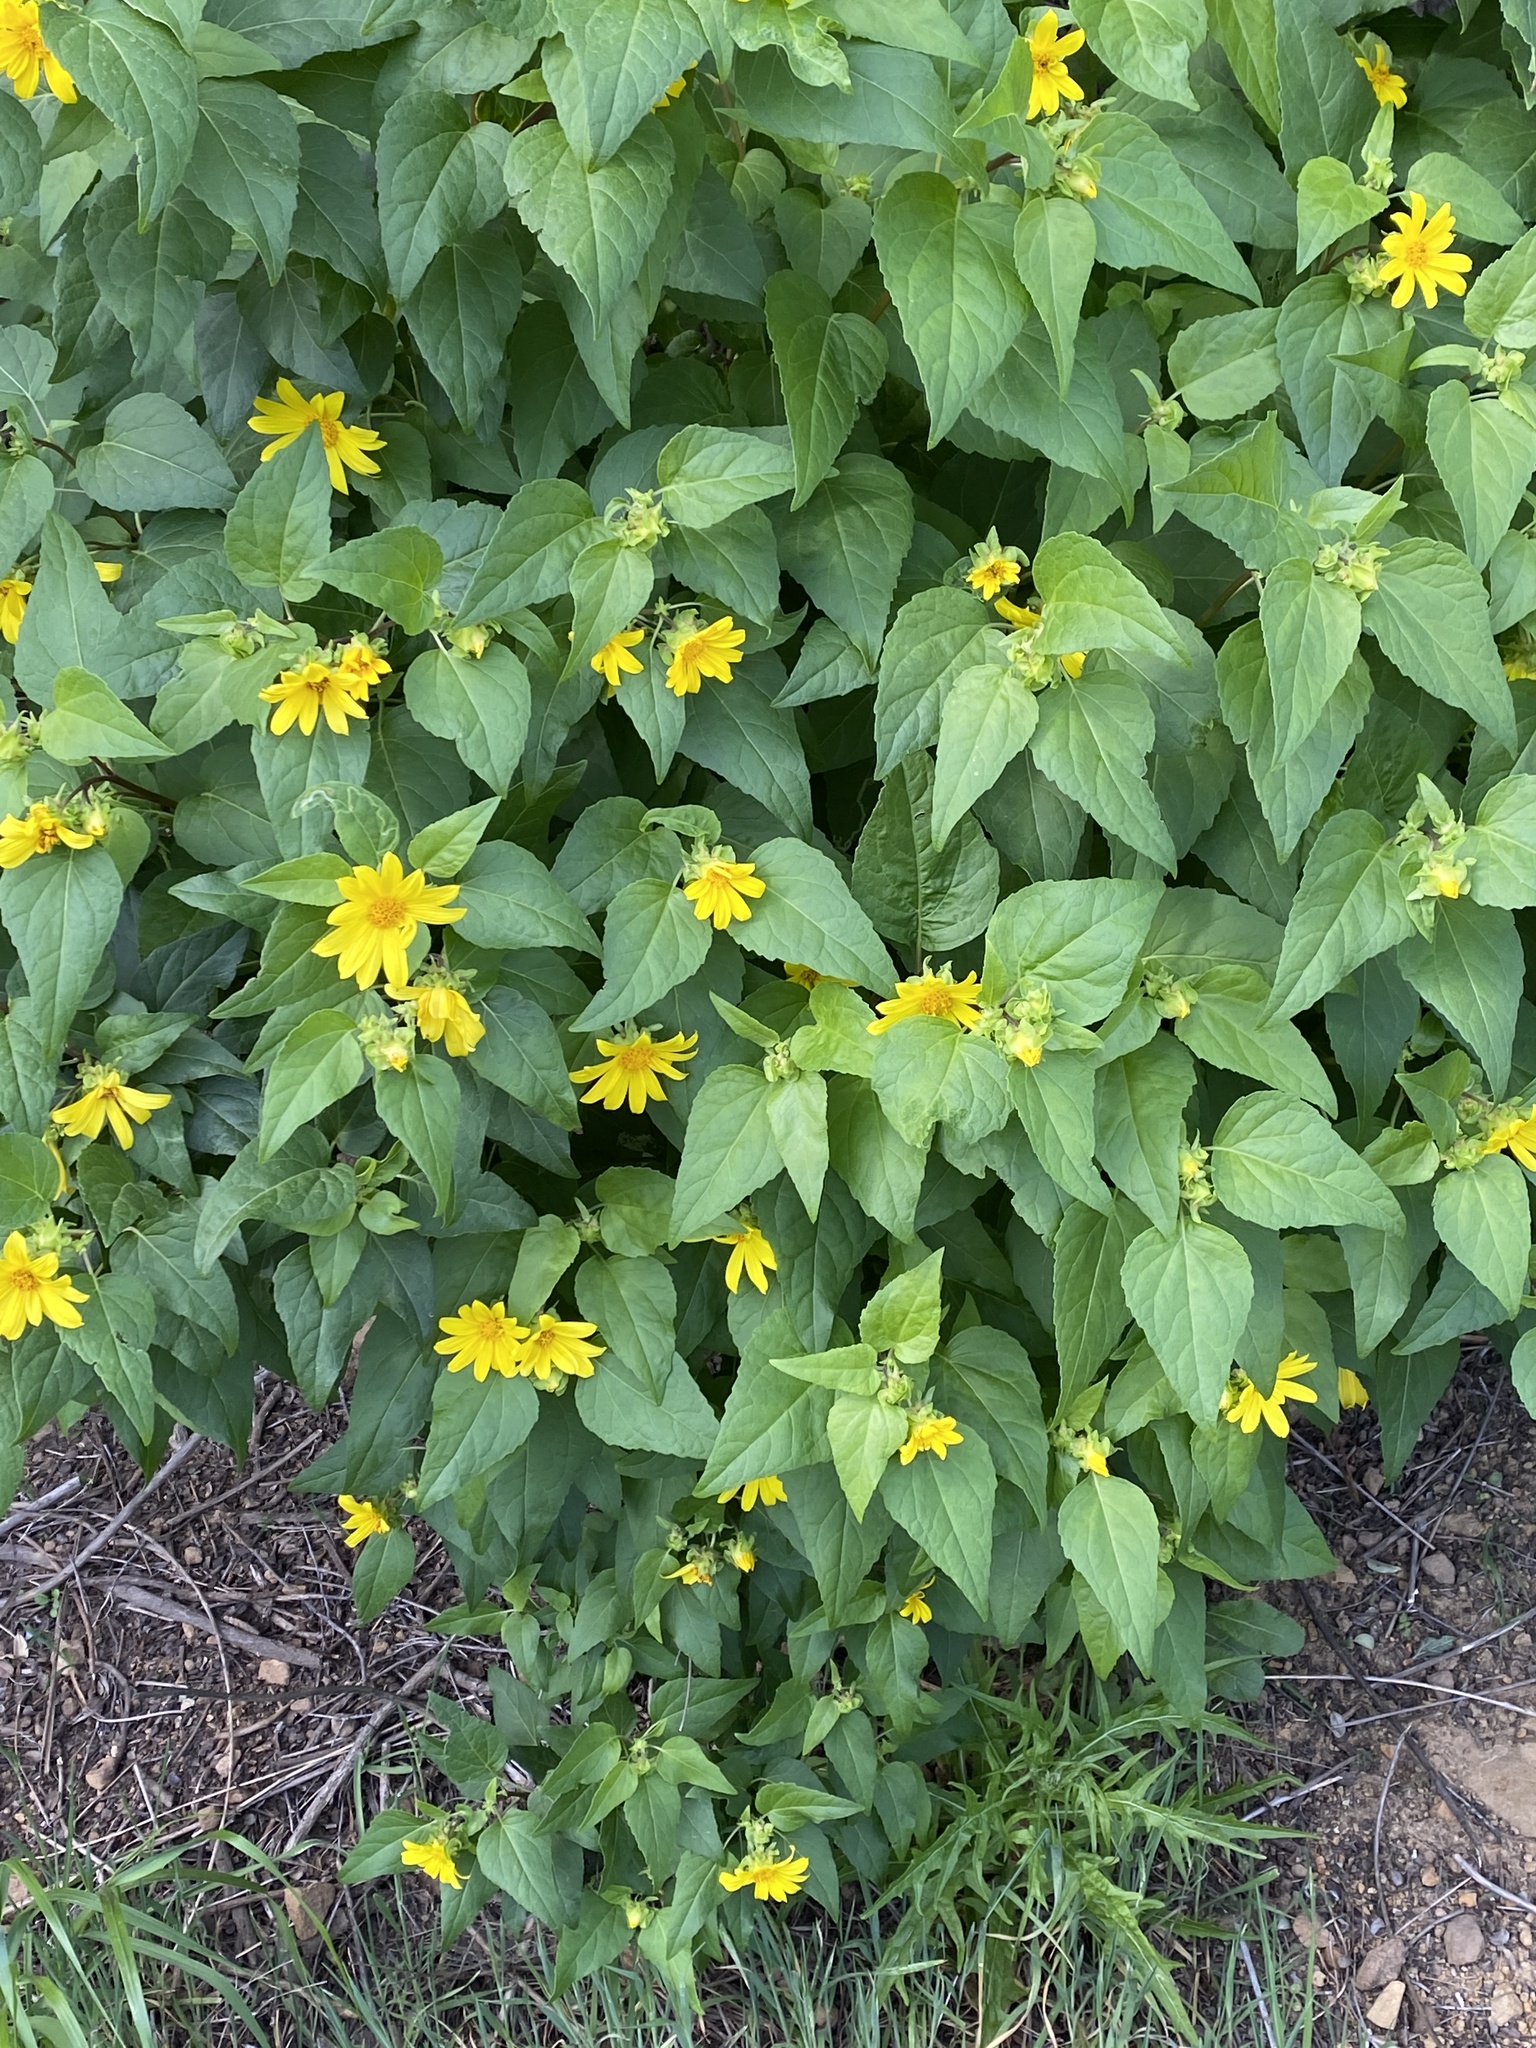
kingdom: Plantae
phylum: Tracheophyta
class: Magnoliopsida
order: Asterales
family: Asteraceae
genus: Venegasia
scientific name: Venegasia carpesioides
